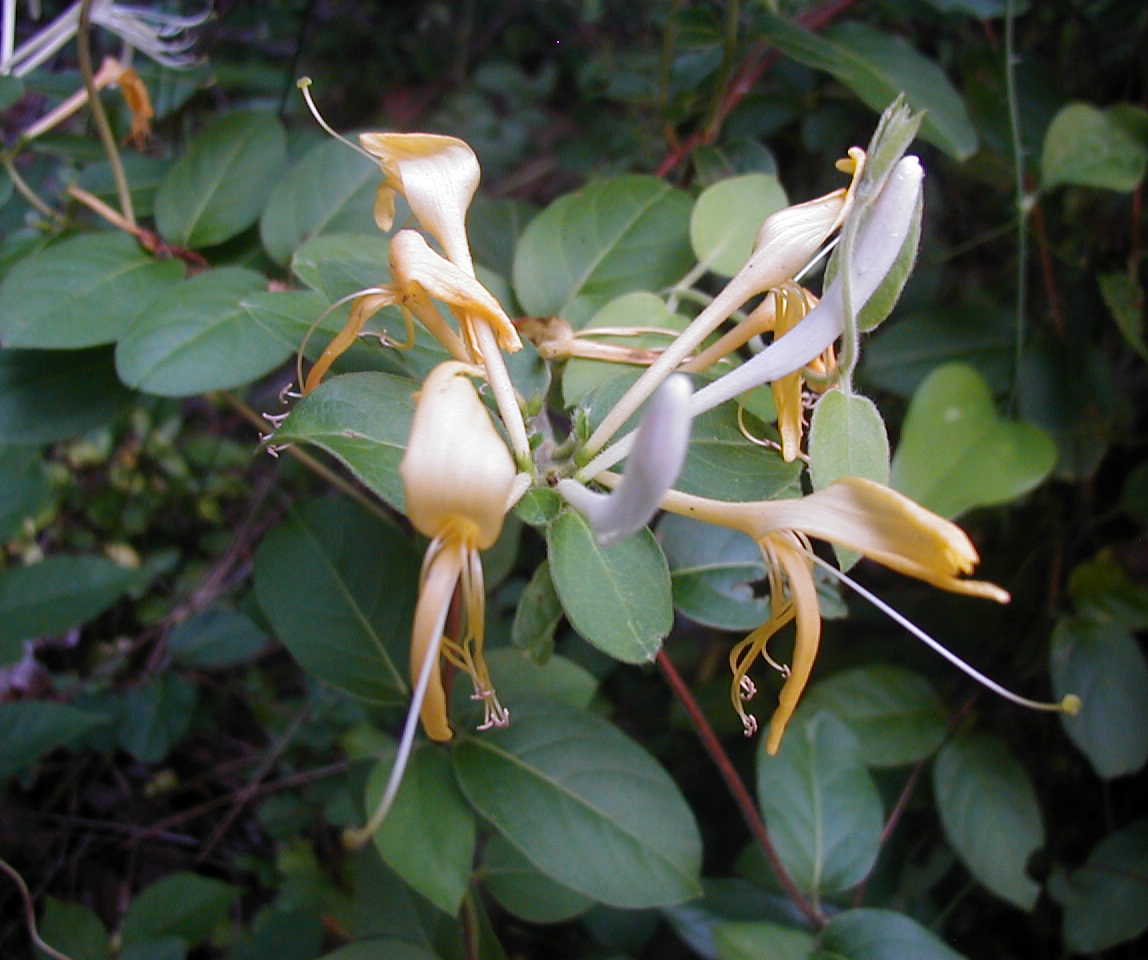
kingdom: Plantae
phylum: Tracheophyta
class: Magnoliopsida
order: Dipsacales
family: Caprifoliaceae
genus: Lonicera
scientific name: Lonicera japonica
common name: Japanese honeysuckle
